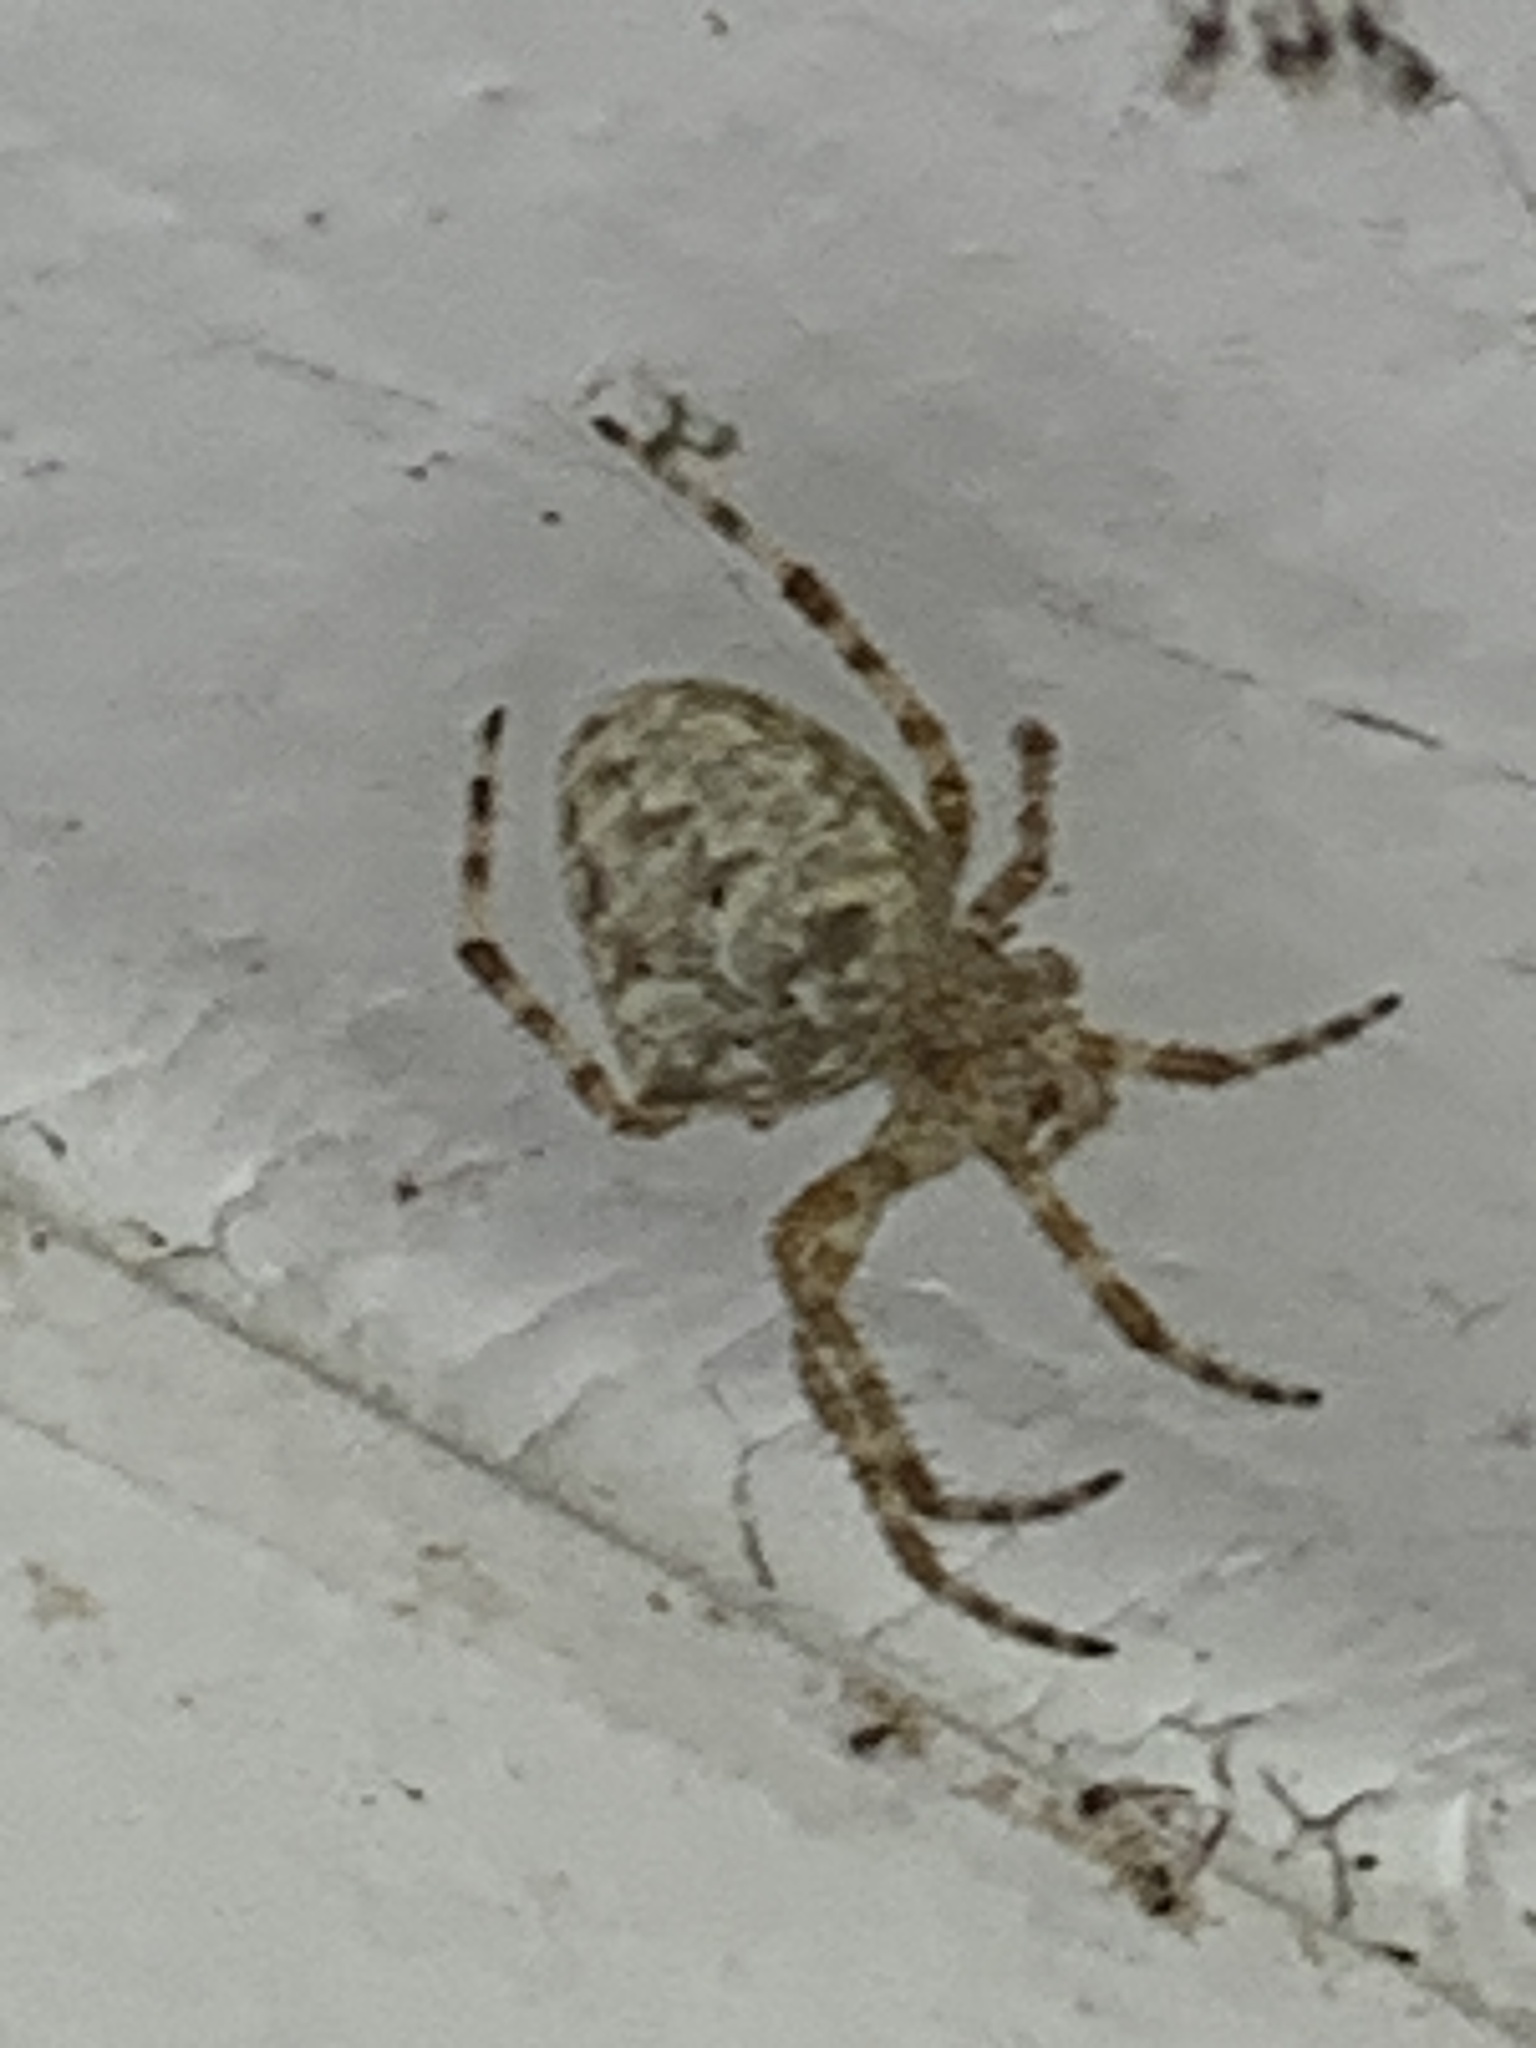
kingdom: Animalia
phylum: Arthropoda
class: Arachnida
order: Araneae
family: Araneidae
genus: Araneus
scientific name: Araneus cavaticus
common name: Barn orbweaver
